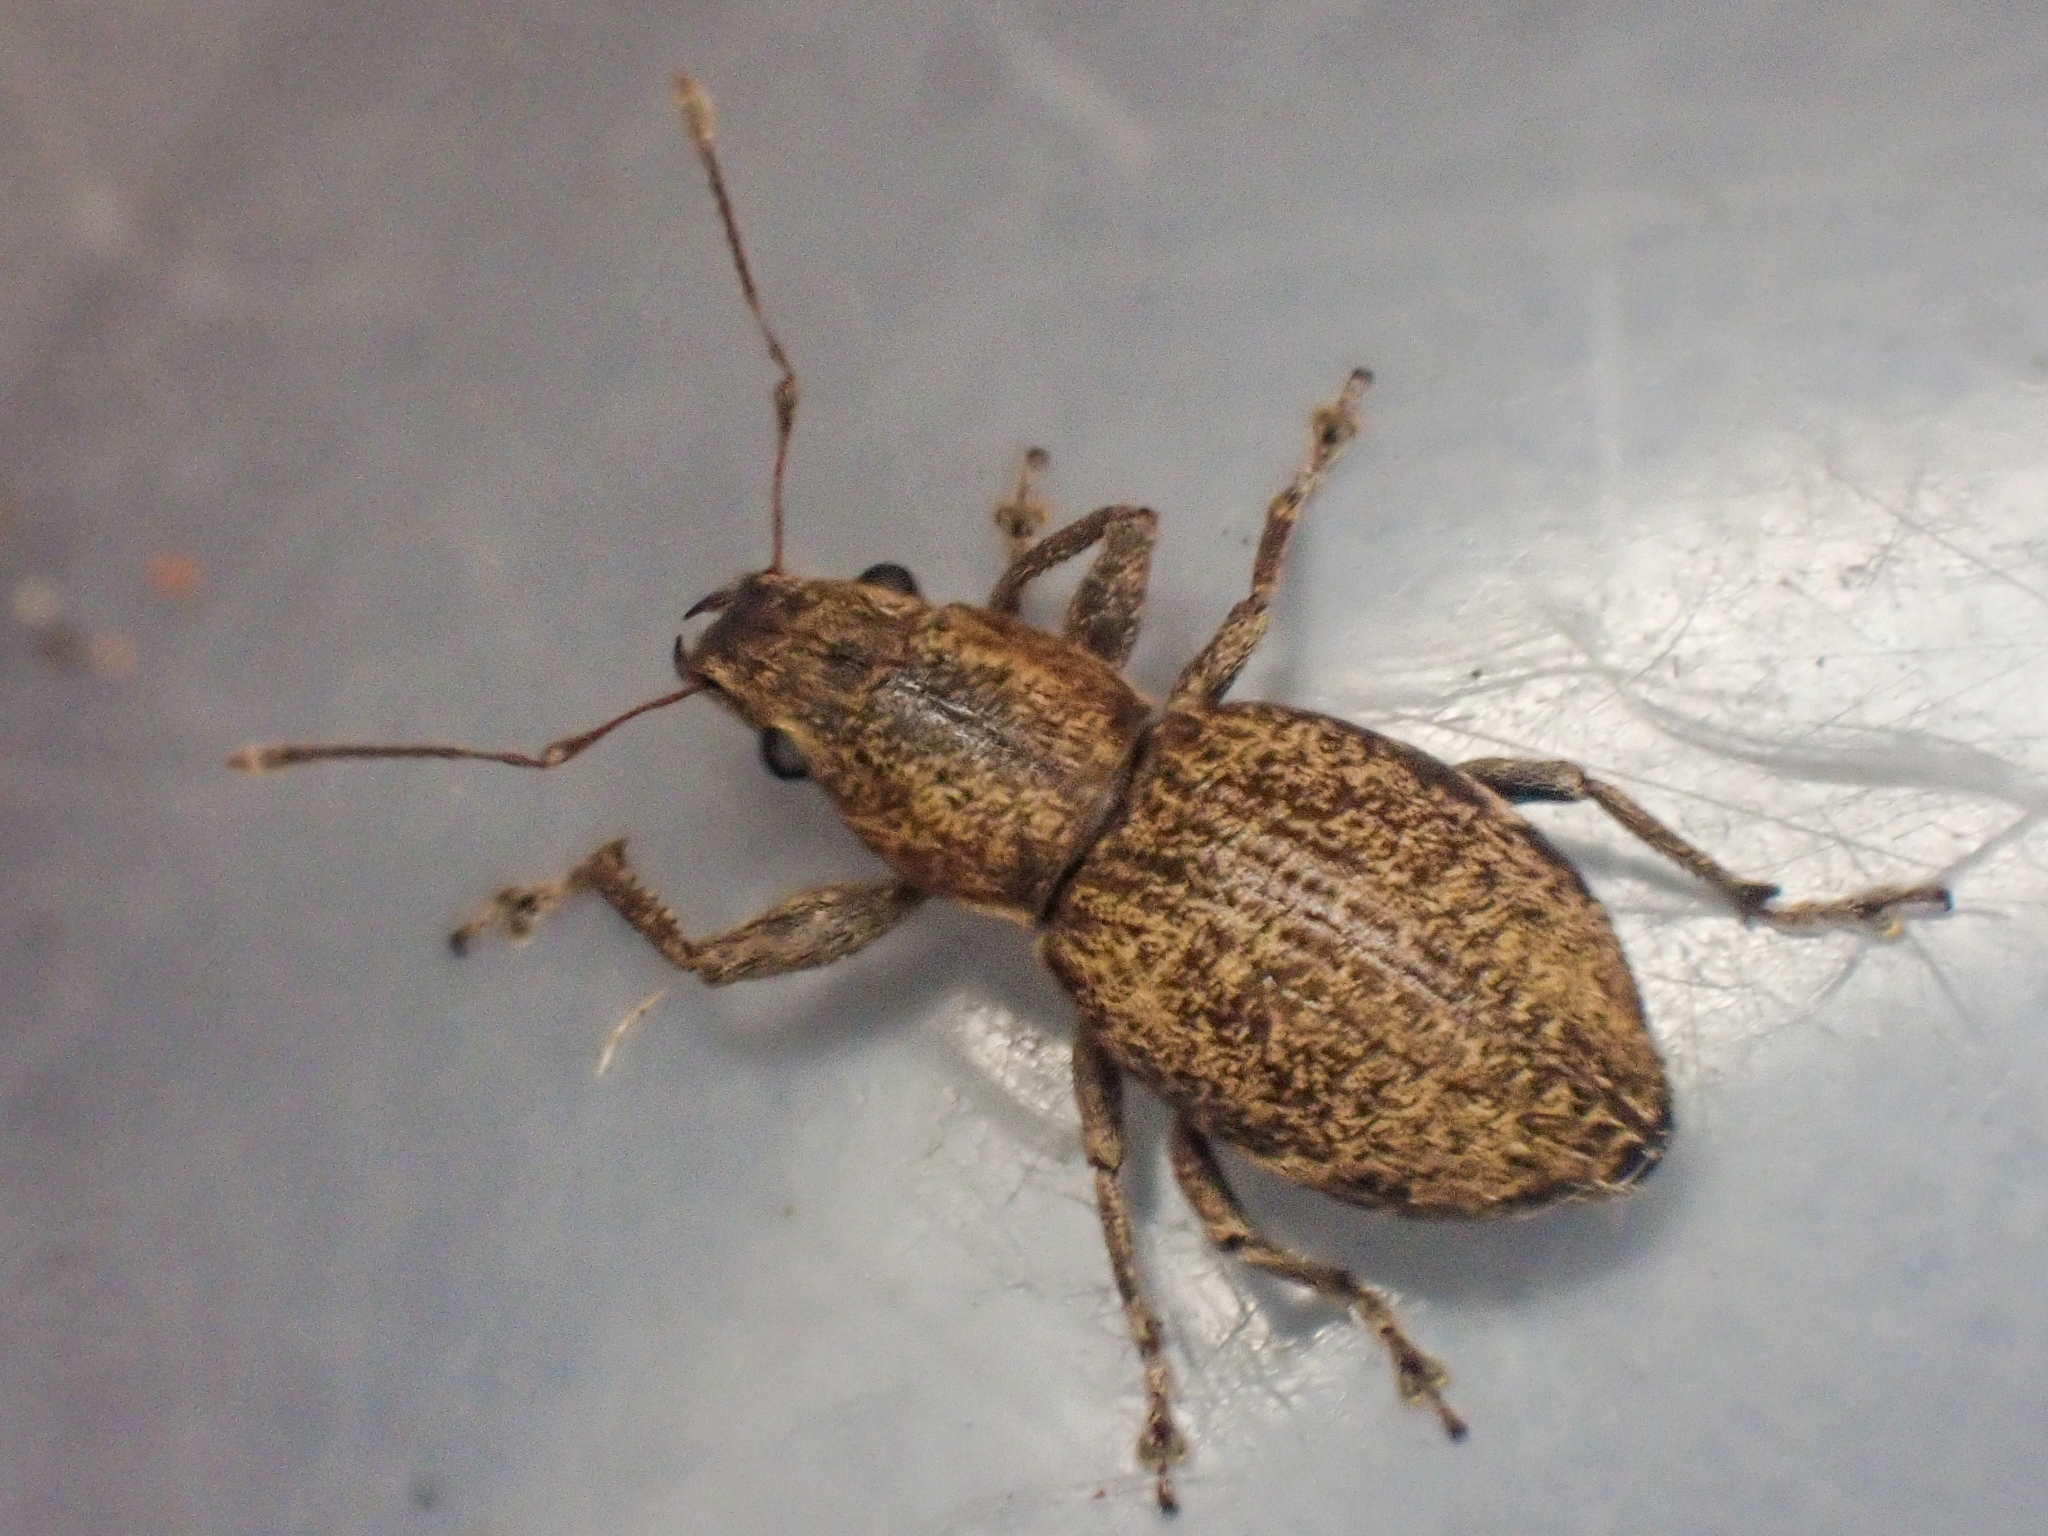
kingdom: Animalia
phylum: Arthropoda
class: Insecta
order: Coleoptera
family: Curculionidae
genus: Naupactus
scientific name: Naupactus cervinus
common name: Fuller rose beetle
